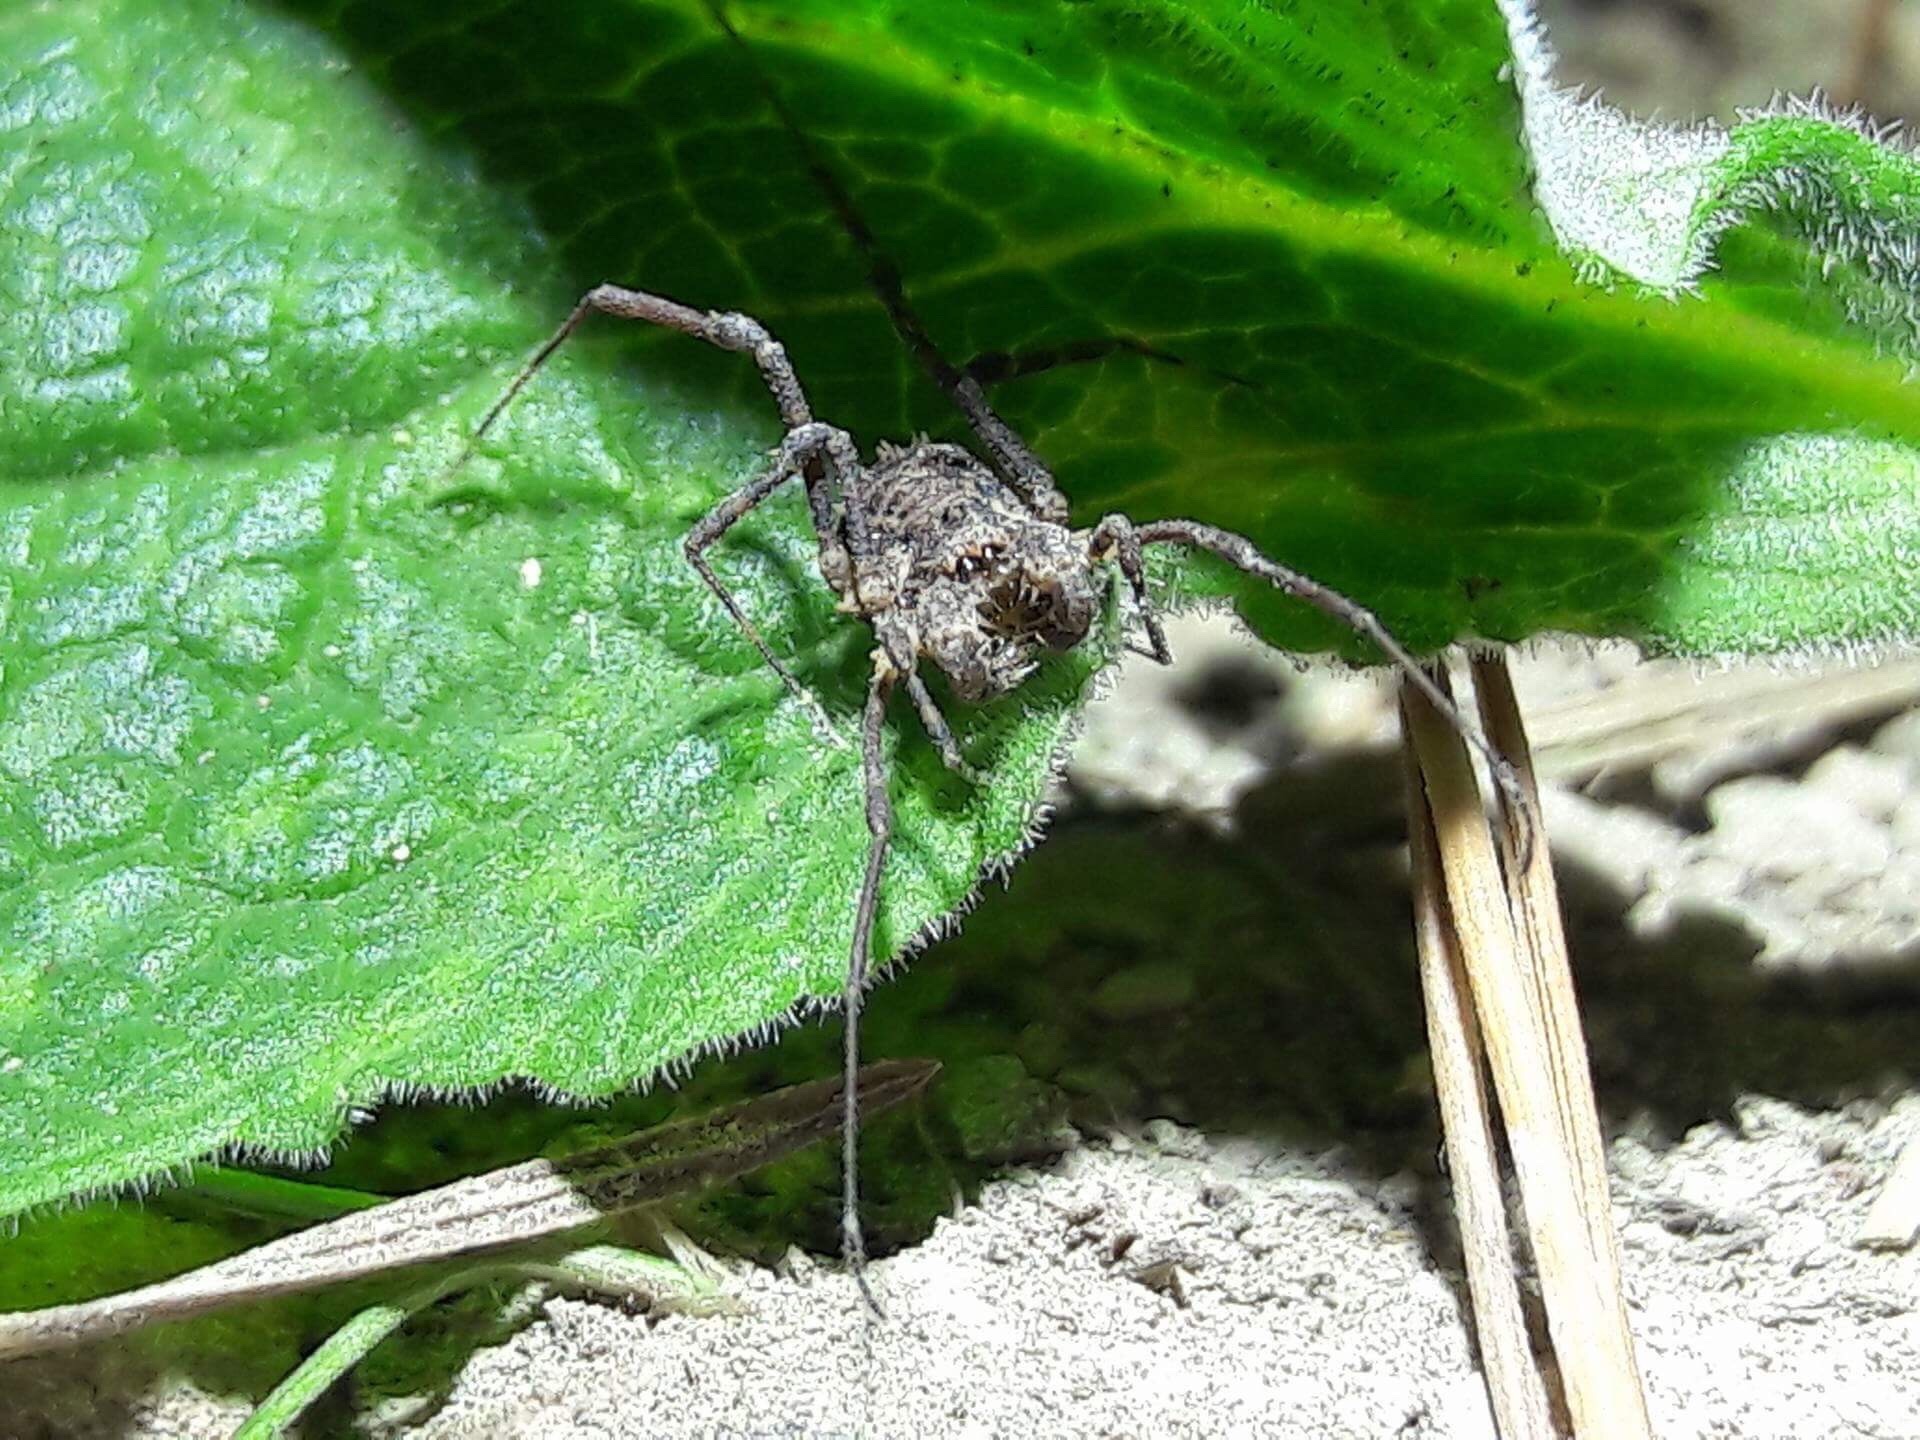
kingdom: Animalia
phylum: Arthropoda
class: Arachnida
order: Opiliones
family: Triaenonychidae
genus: Algidia
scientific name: Algidia nigriflava
